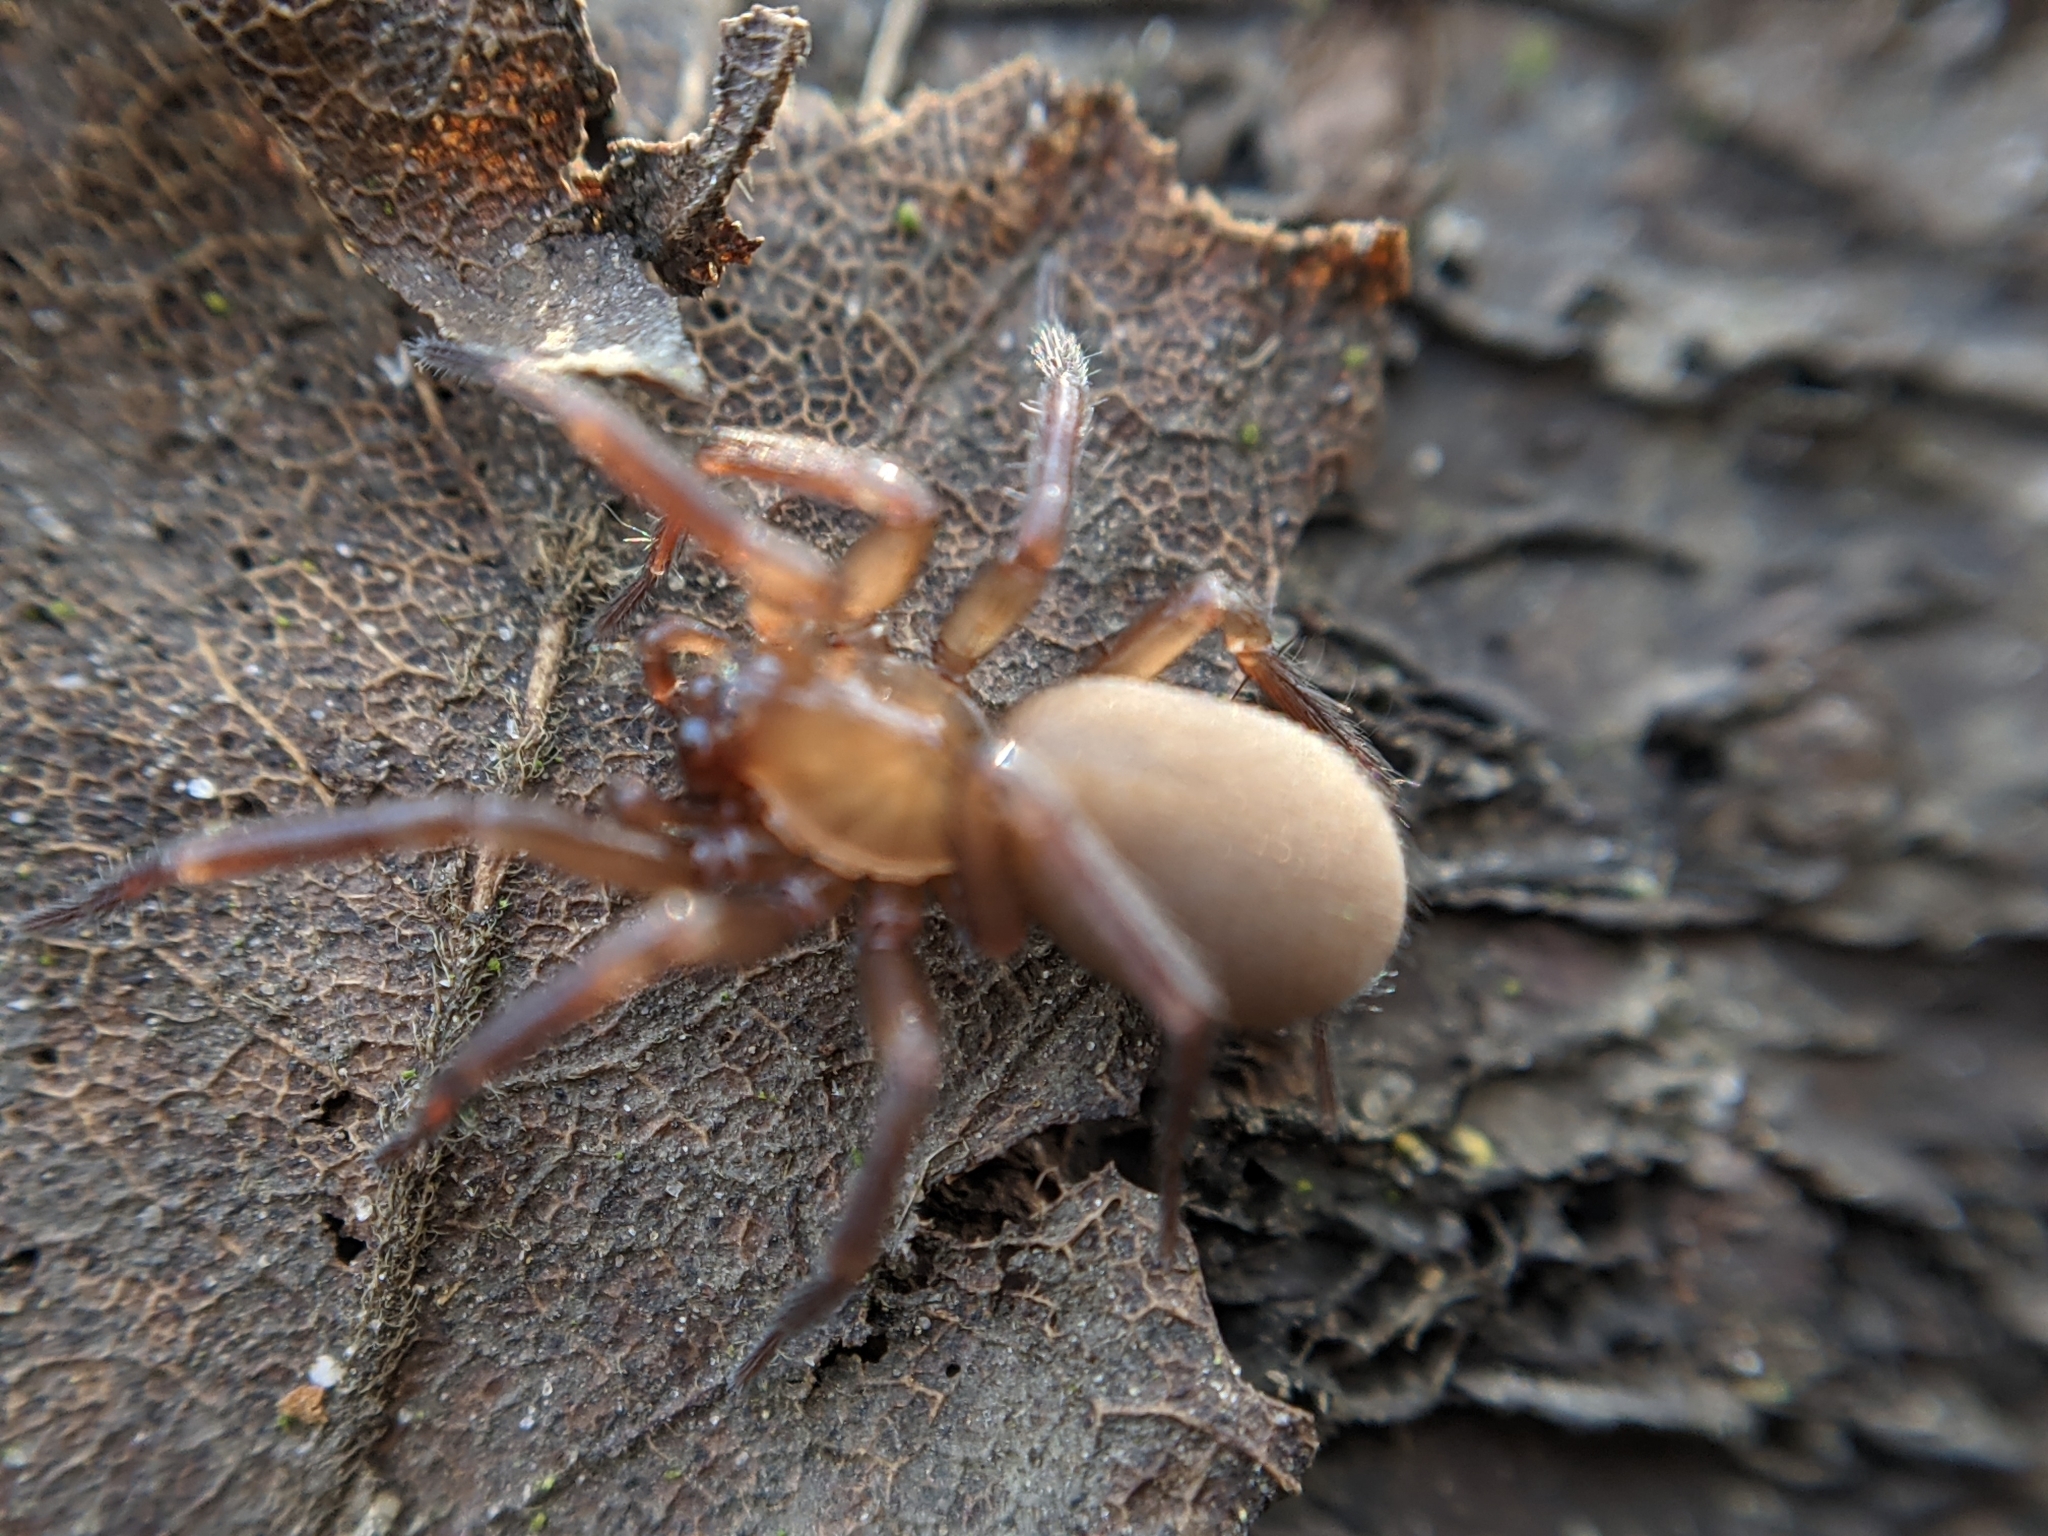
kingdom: Animalia
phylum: Arthropoda
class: Arachnida
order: Araneae
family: Hahniidae
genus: Cicurina
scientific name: Cicurina cicur
